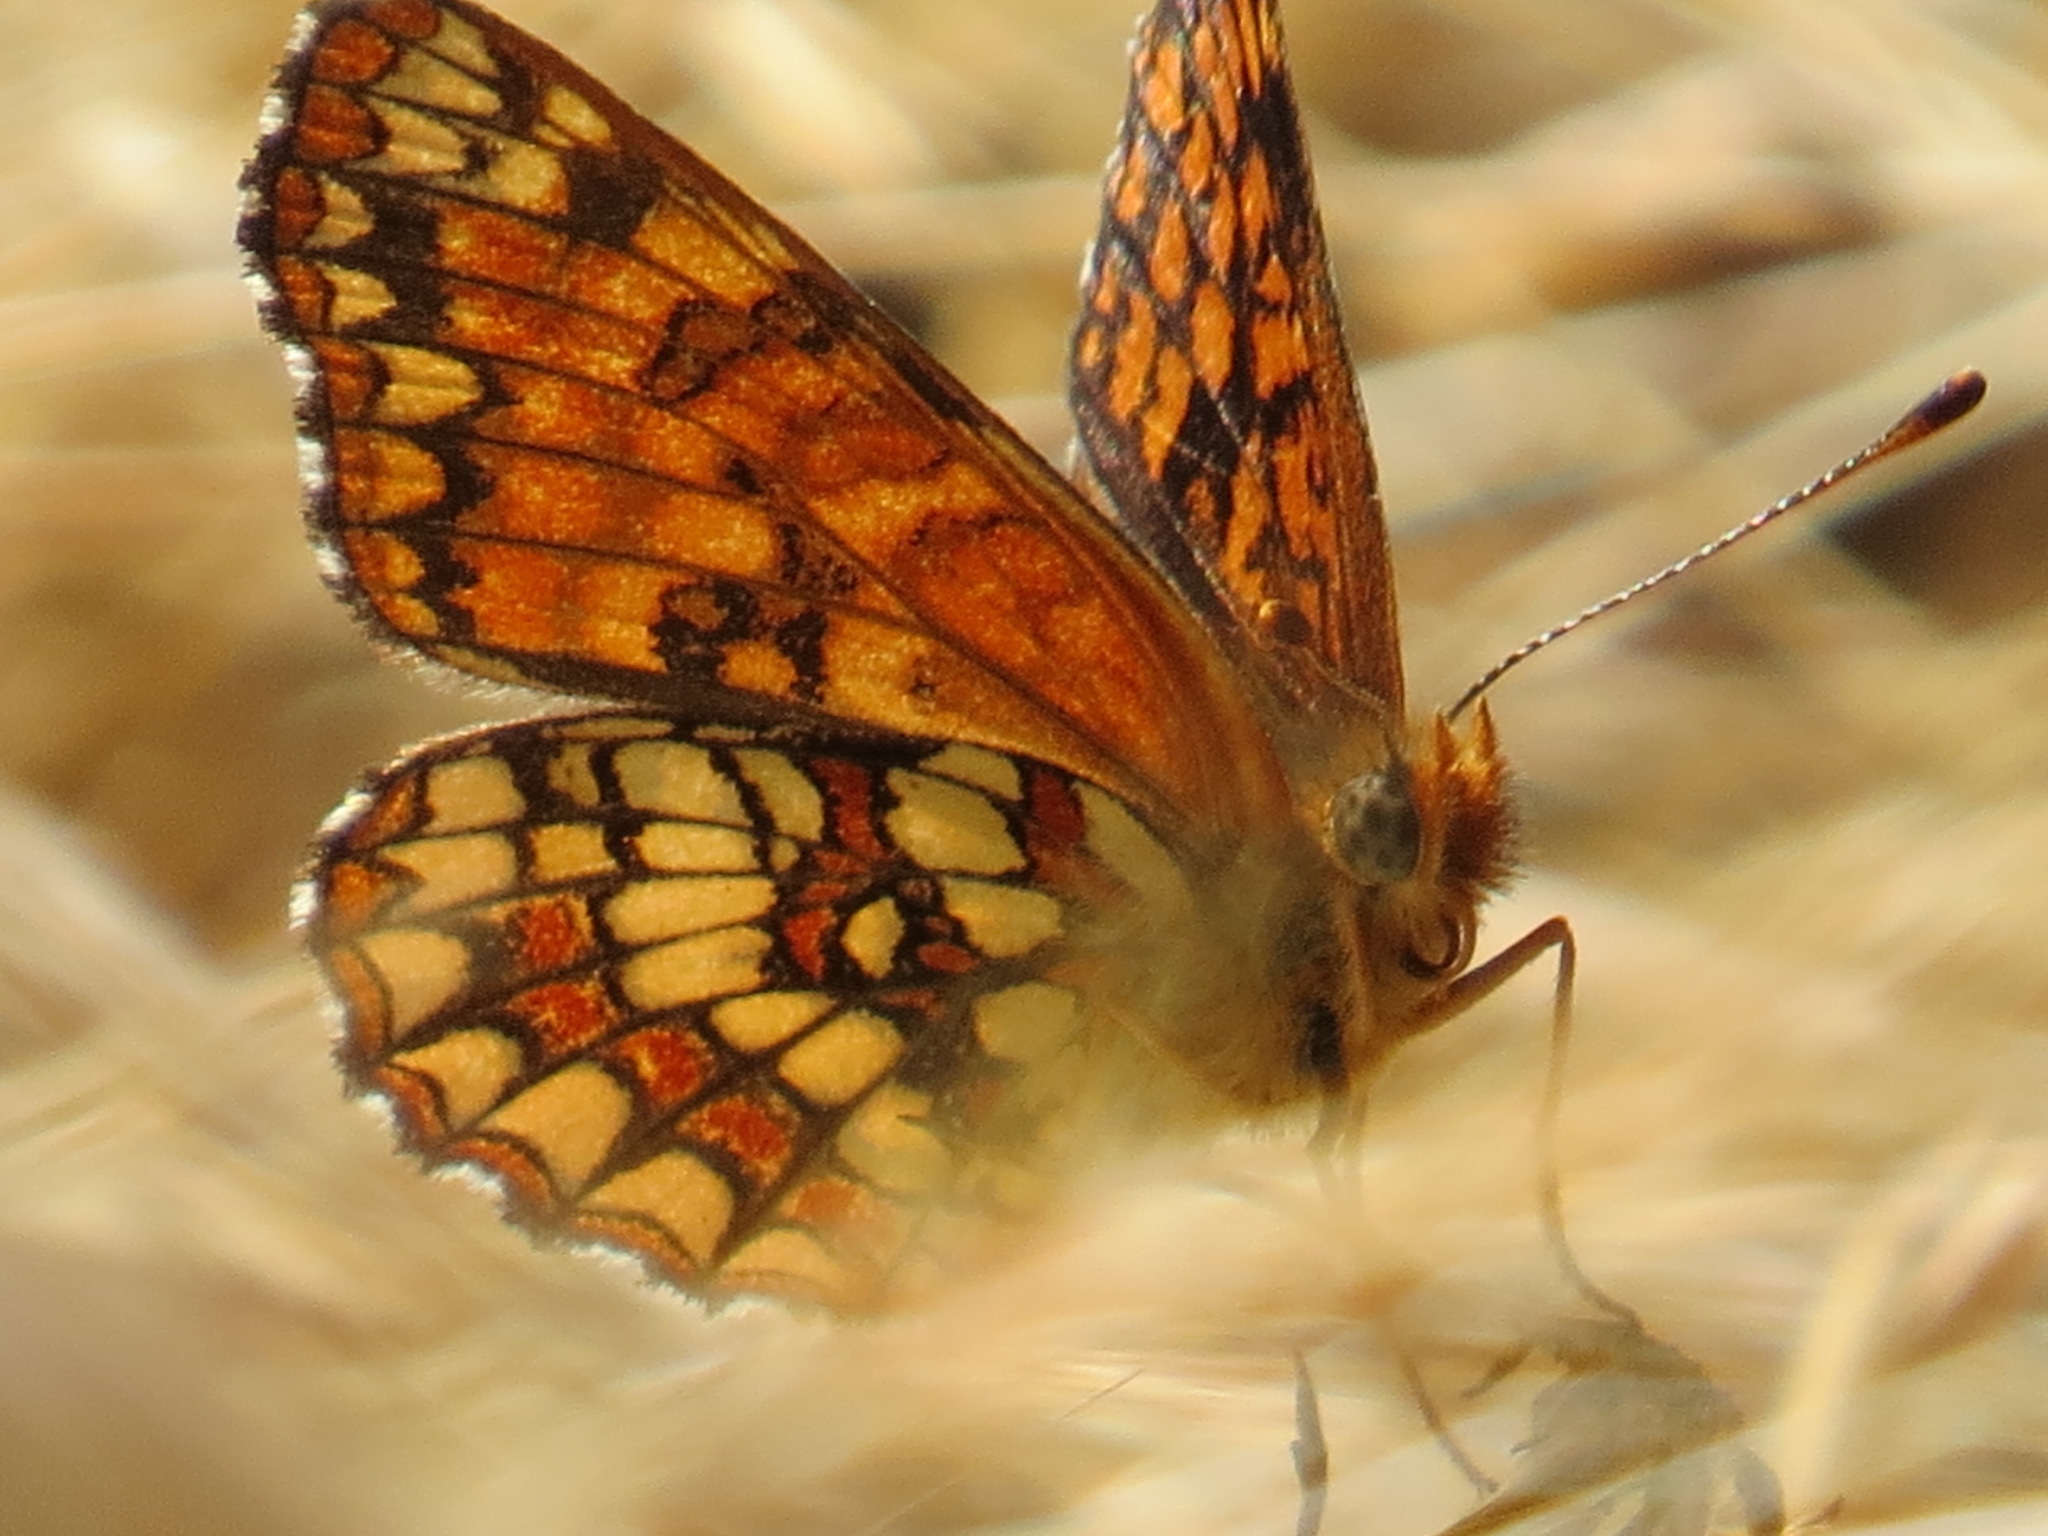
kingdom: Animalia
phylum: Arthropoda
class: Insecta
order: Lepidoptera
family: Nymphalidae
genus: Chlosyne
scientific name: Chlosyne palla
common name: Northern checkerspot
